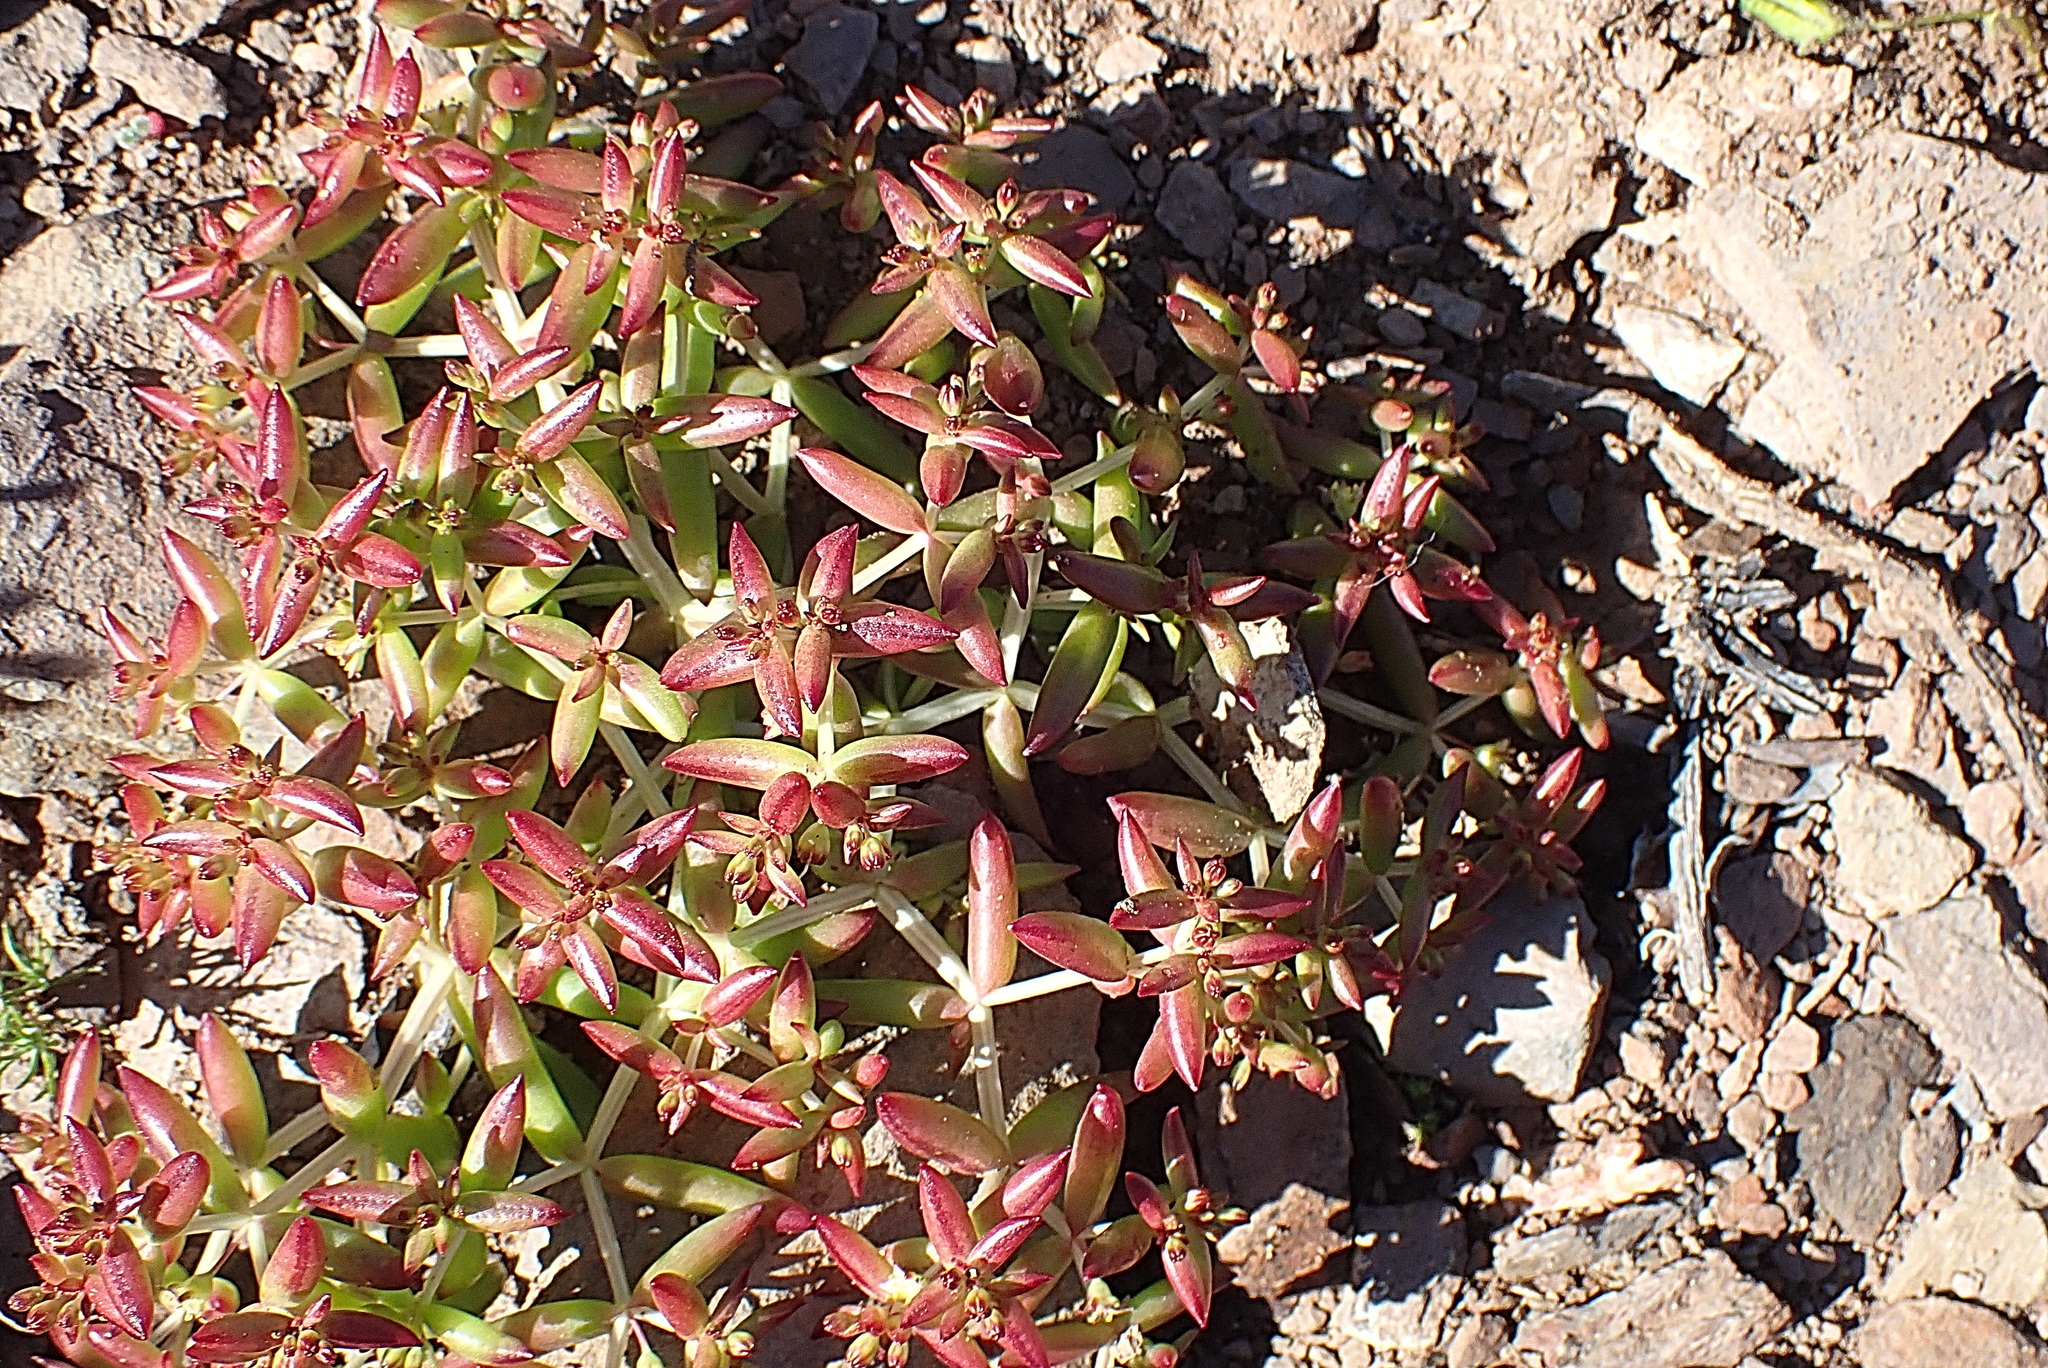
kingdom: Plantae
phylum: Tracheophyta
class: Magnoliopsida
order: Saxifragales
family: Crassulaceae
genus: Crassula
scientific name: Crassula expansa
